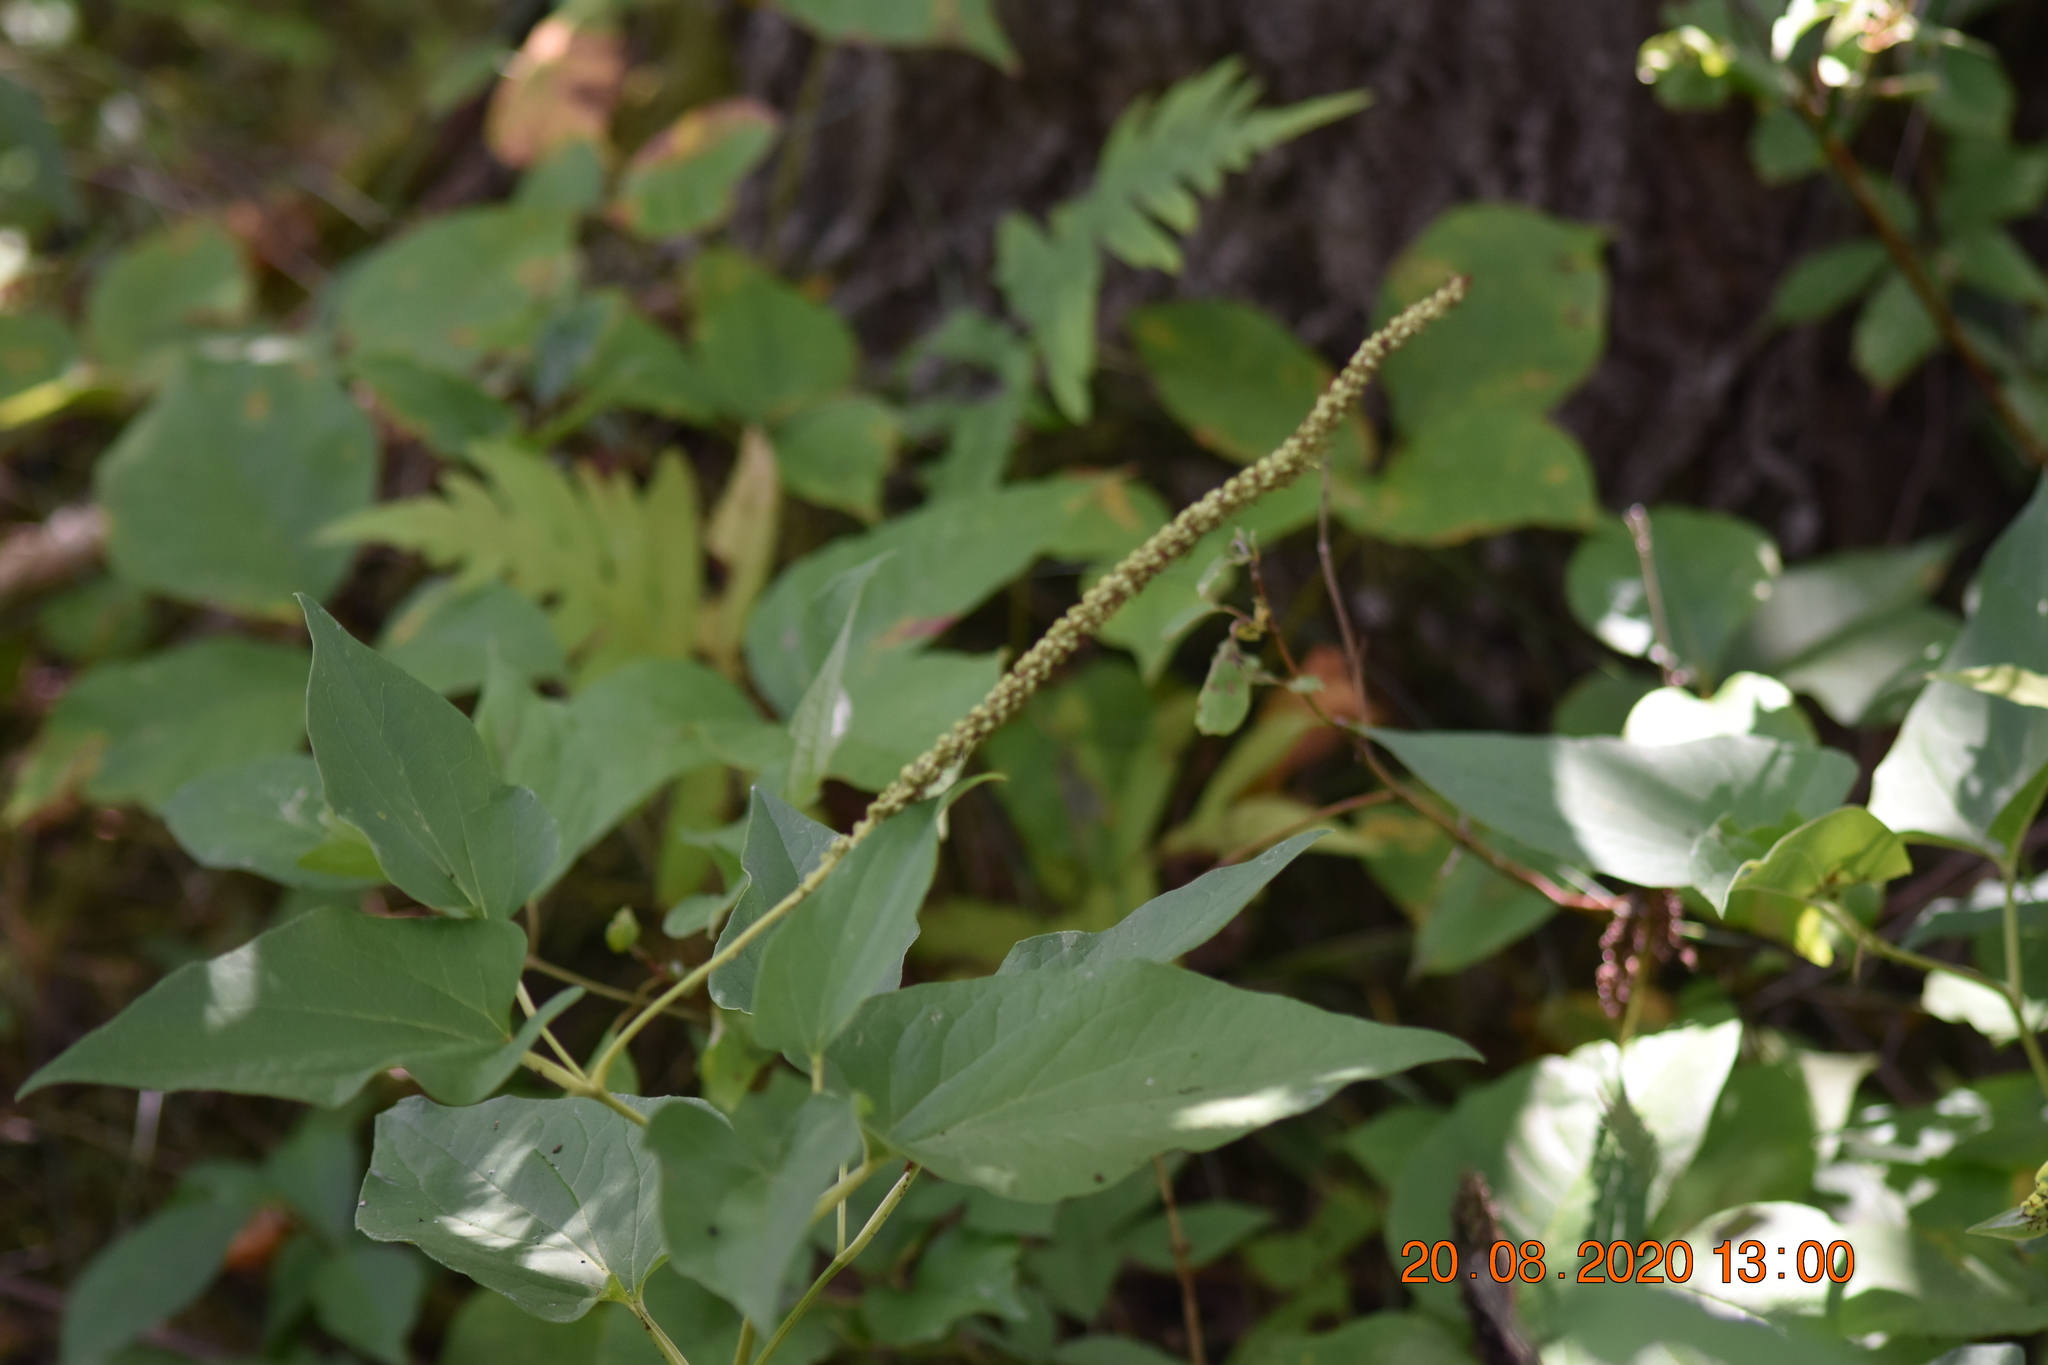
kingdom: Plantae
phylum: Tracheophyta
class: Magnoliopsida
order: Piperales
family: Saururaceae
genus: Saururus
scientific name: Saururus cernuus
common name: Lizard's-tail
